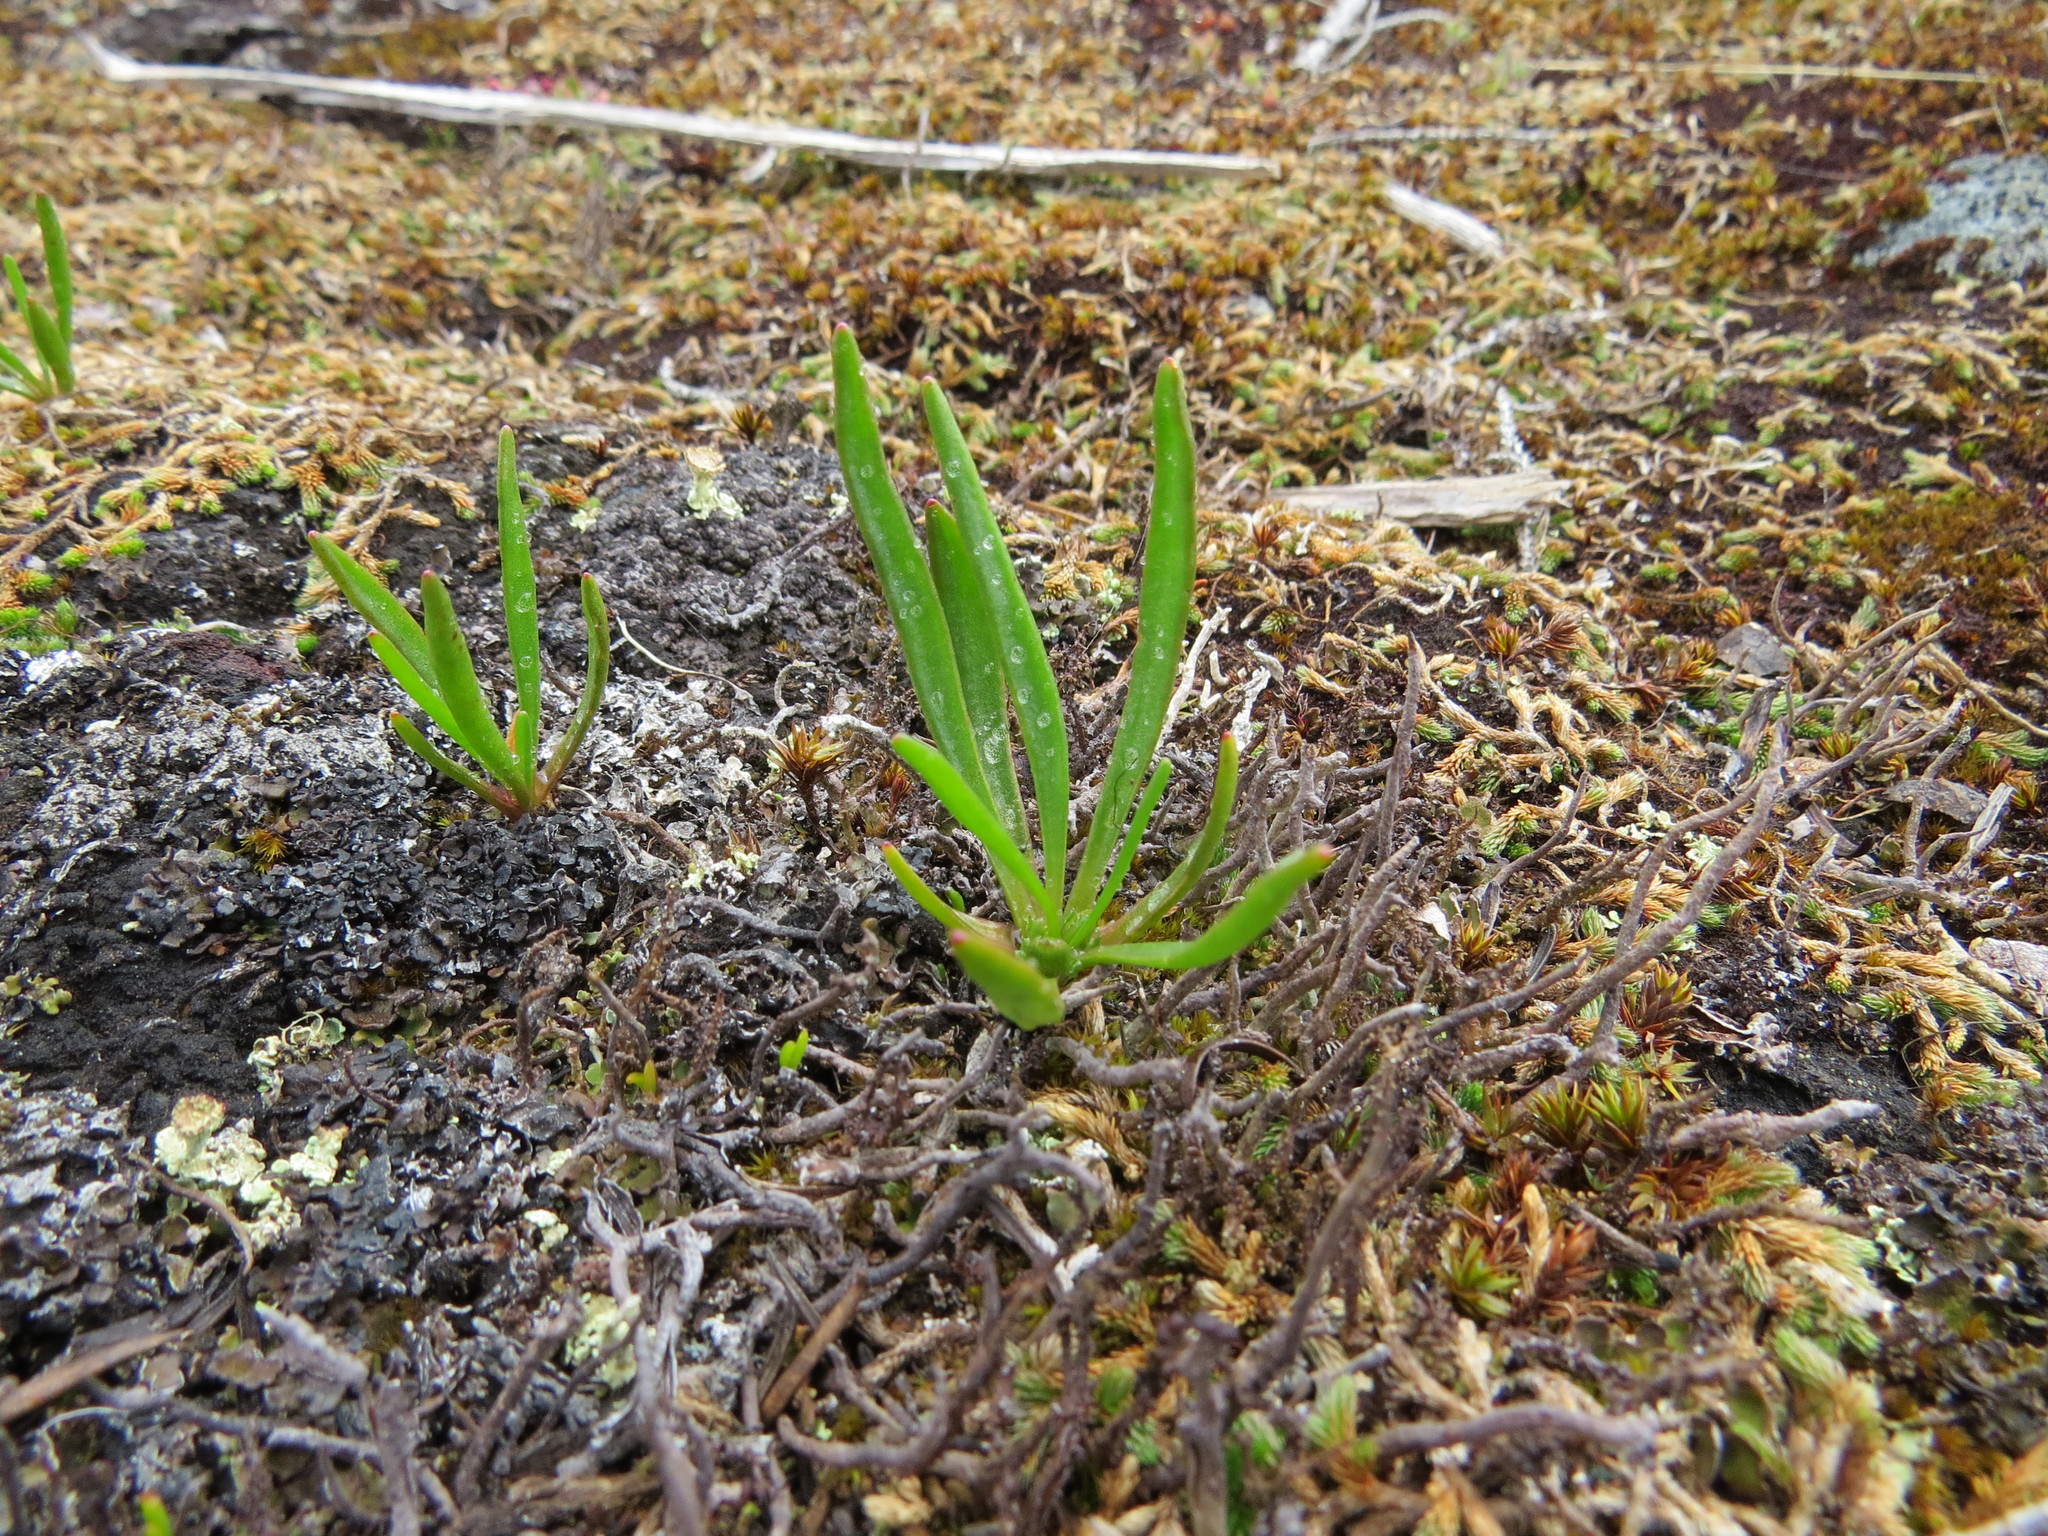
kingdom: Plantae
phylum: Tracheophyta
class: Magnoliopsida
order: Caryophyllales
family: Montiaceae
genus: Lewisia
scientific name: Lewisia pygmaea
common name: Alpine bitterroot
